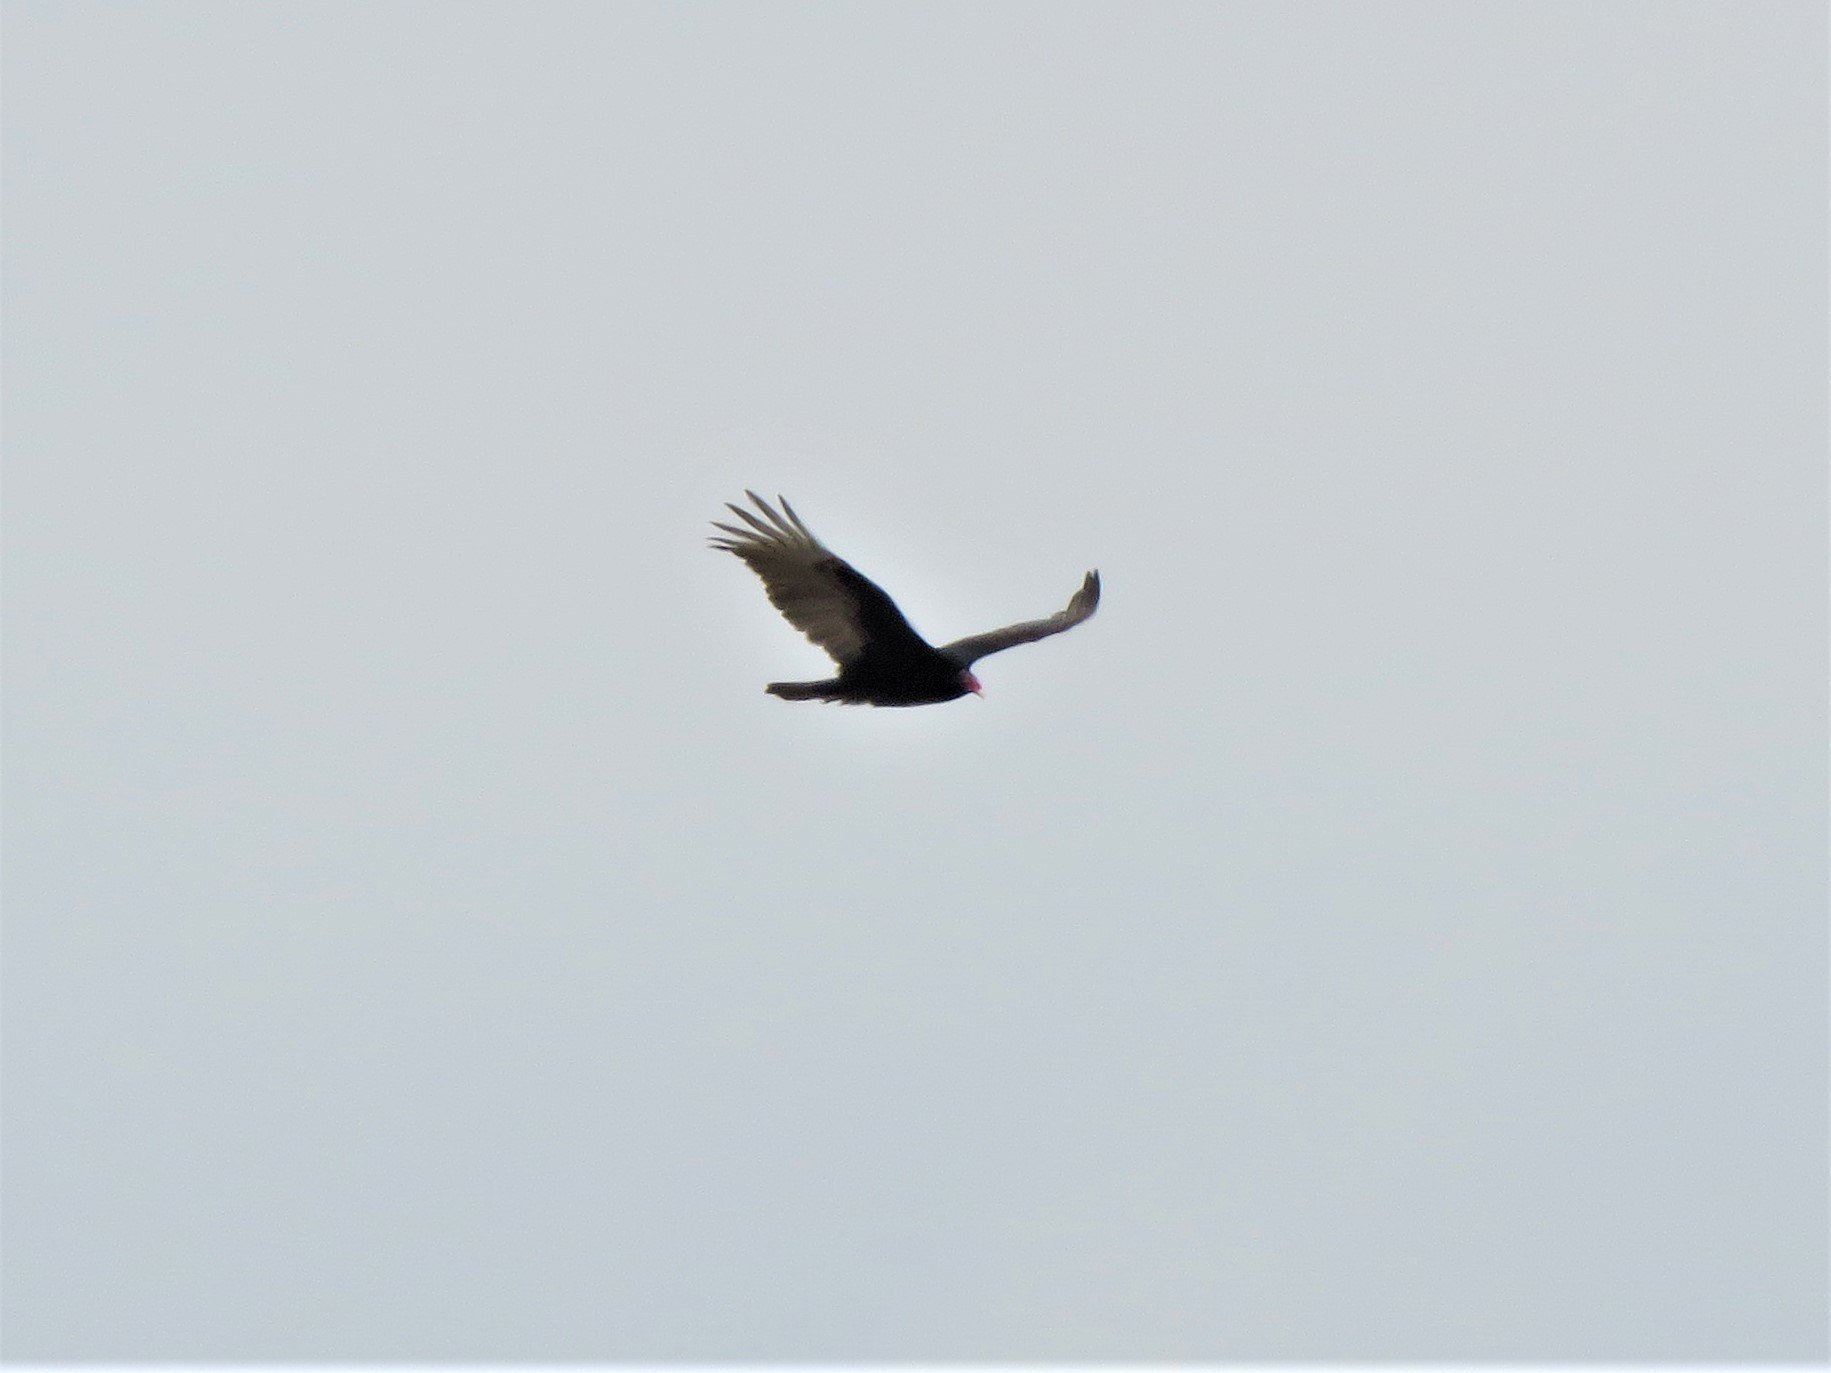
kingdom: Animalia
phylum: Chordata
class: Aves
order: Accipitriformes
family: Cathartidae
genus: Cathartes
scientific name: Cathartes aura
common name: Turkey vulture
